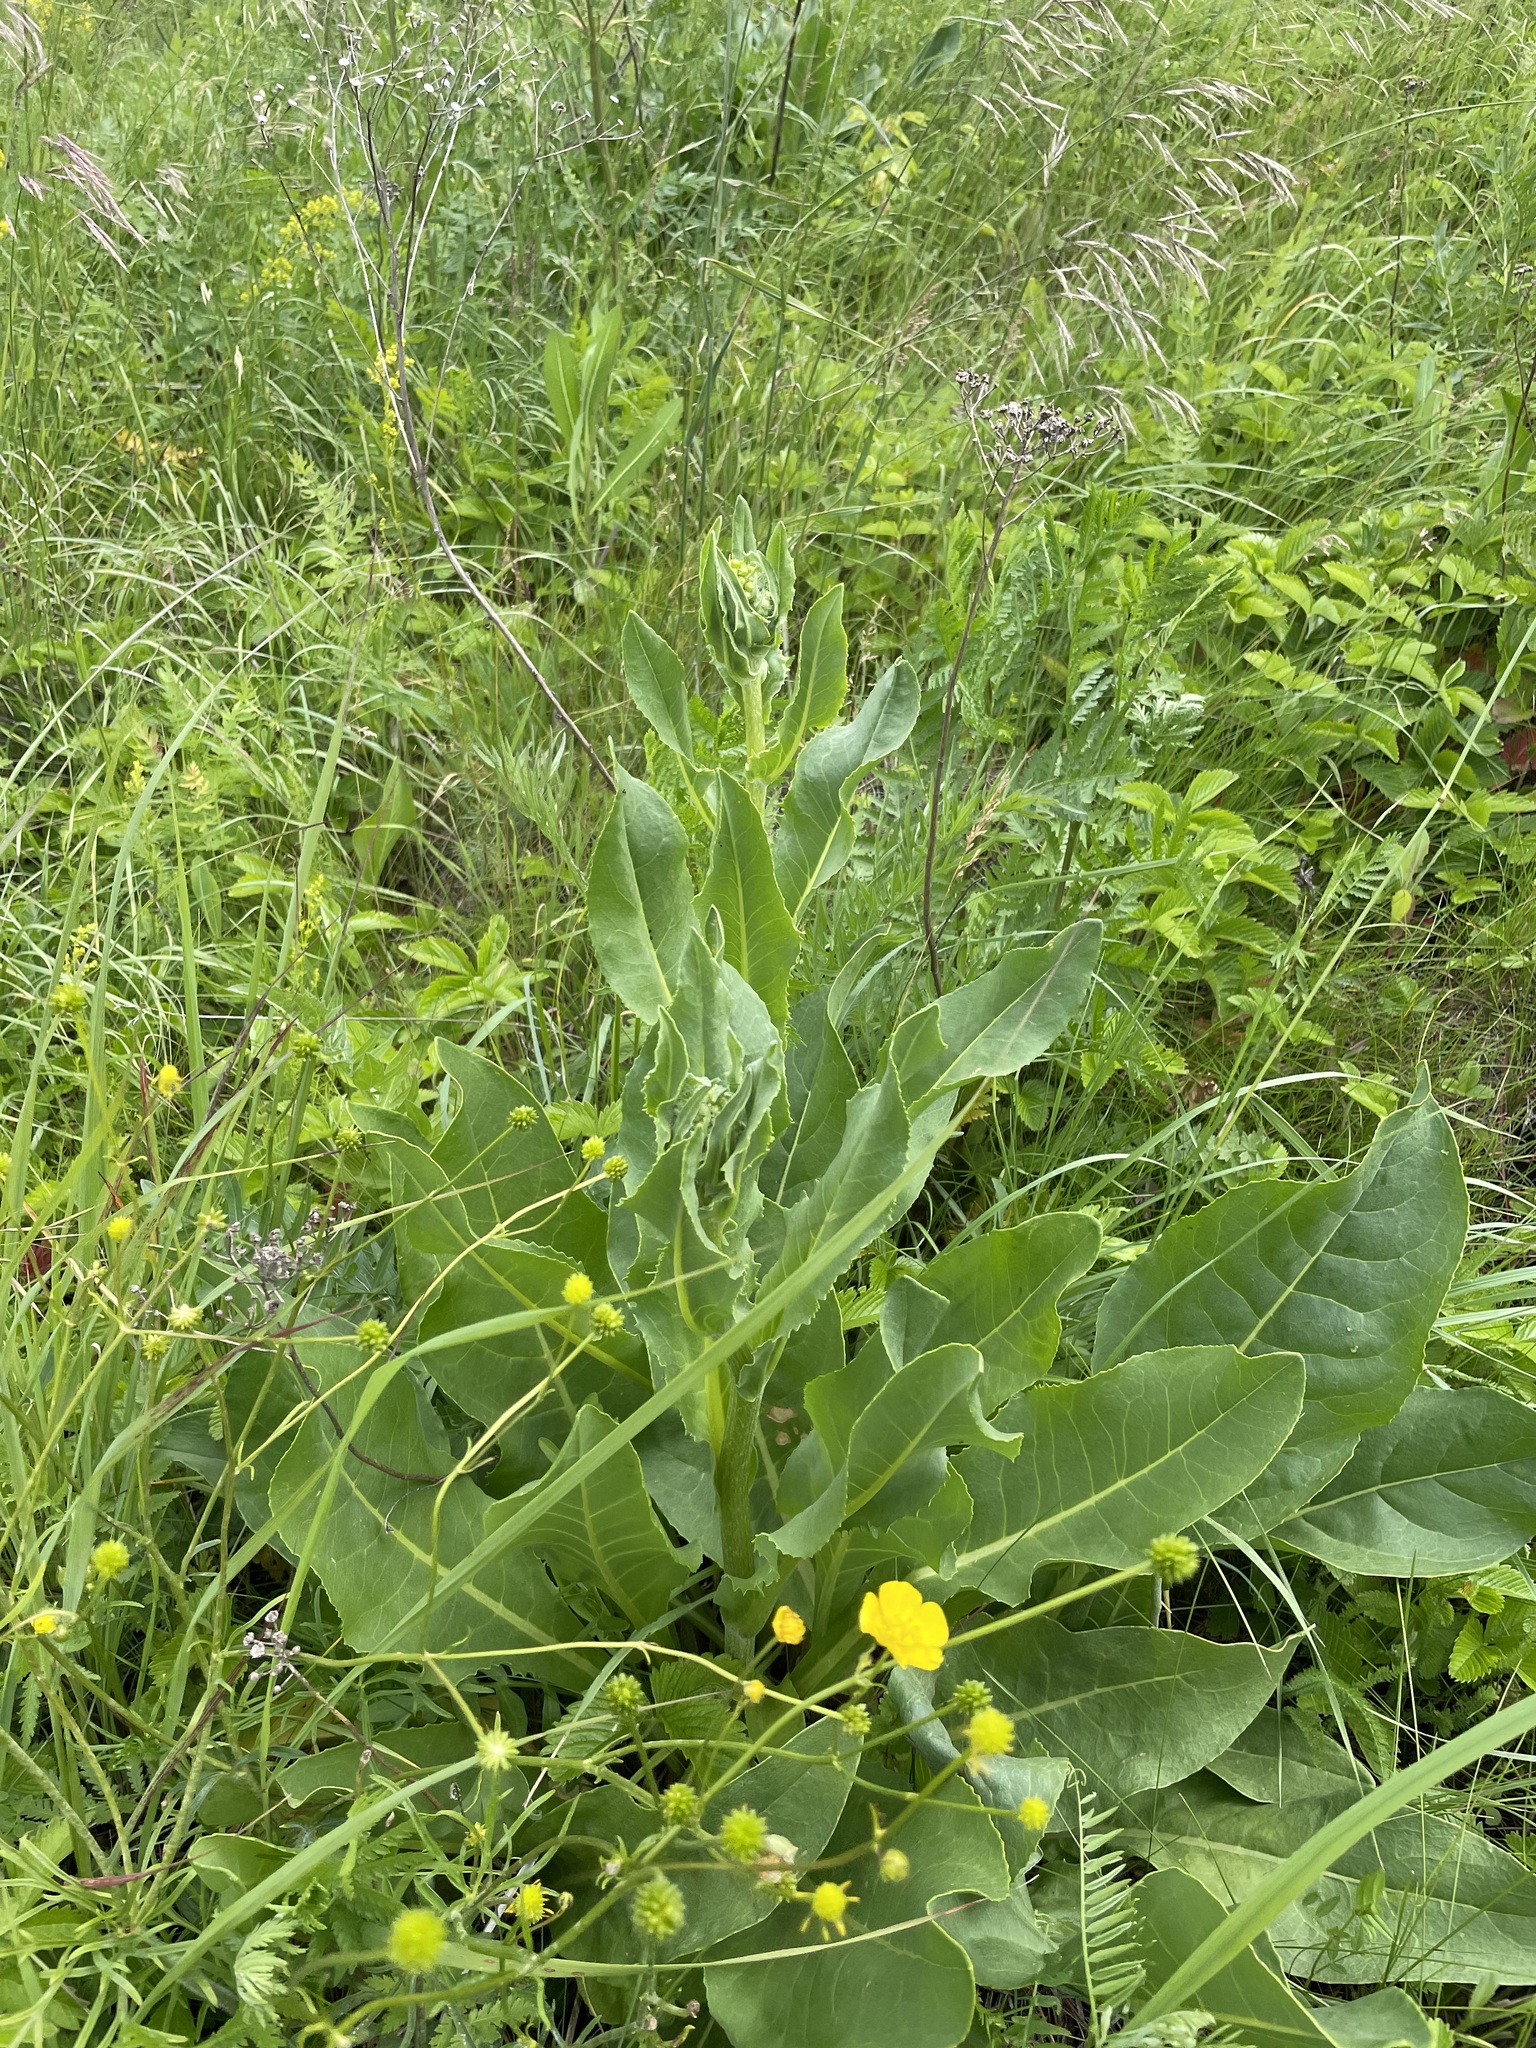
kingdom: Plantae
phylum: Tracheophyta
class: Magnoliopsida
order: Asterales
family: Asteraceae
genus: Senecio
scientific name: Senecio doria
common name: Golden ragwort
